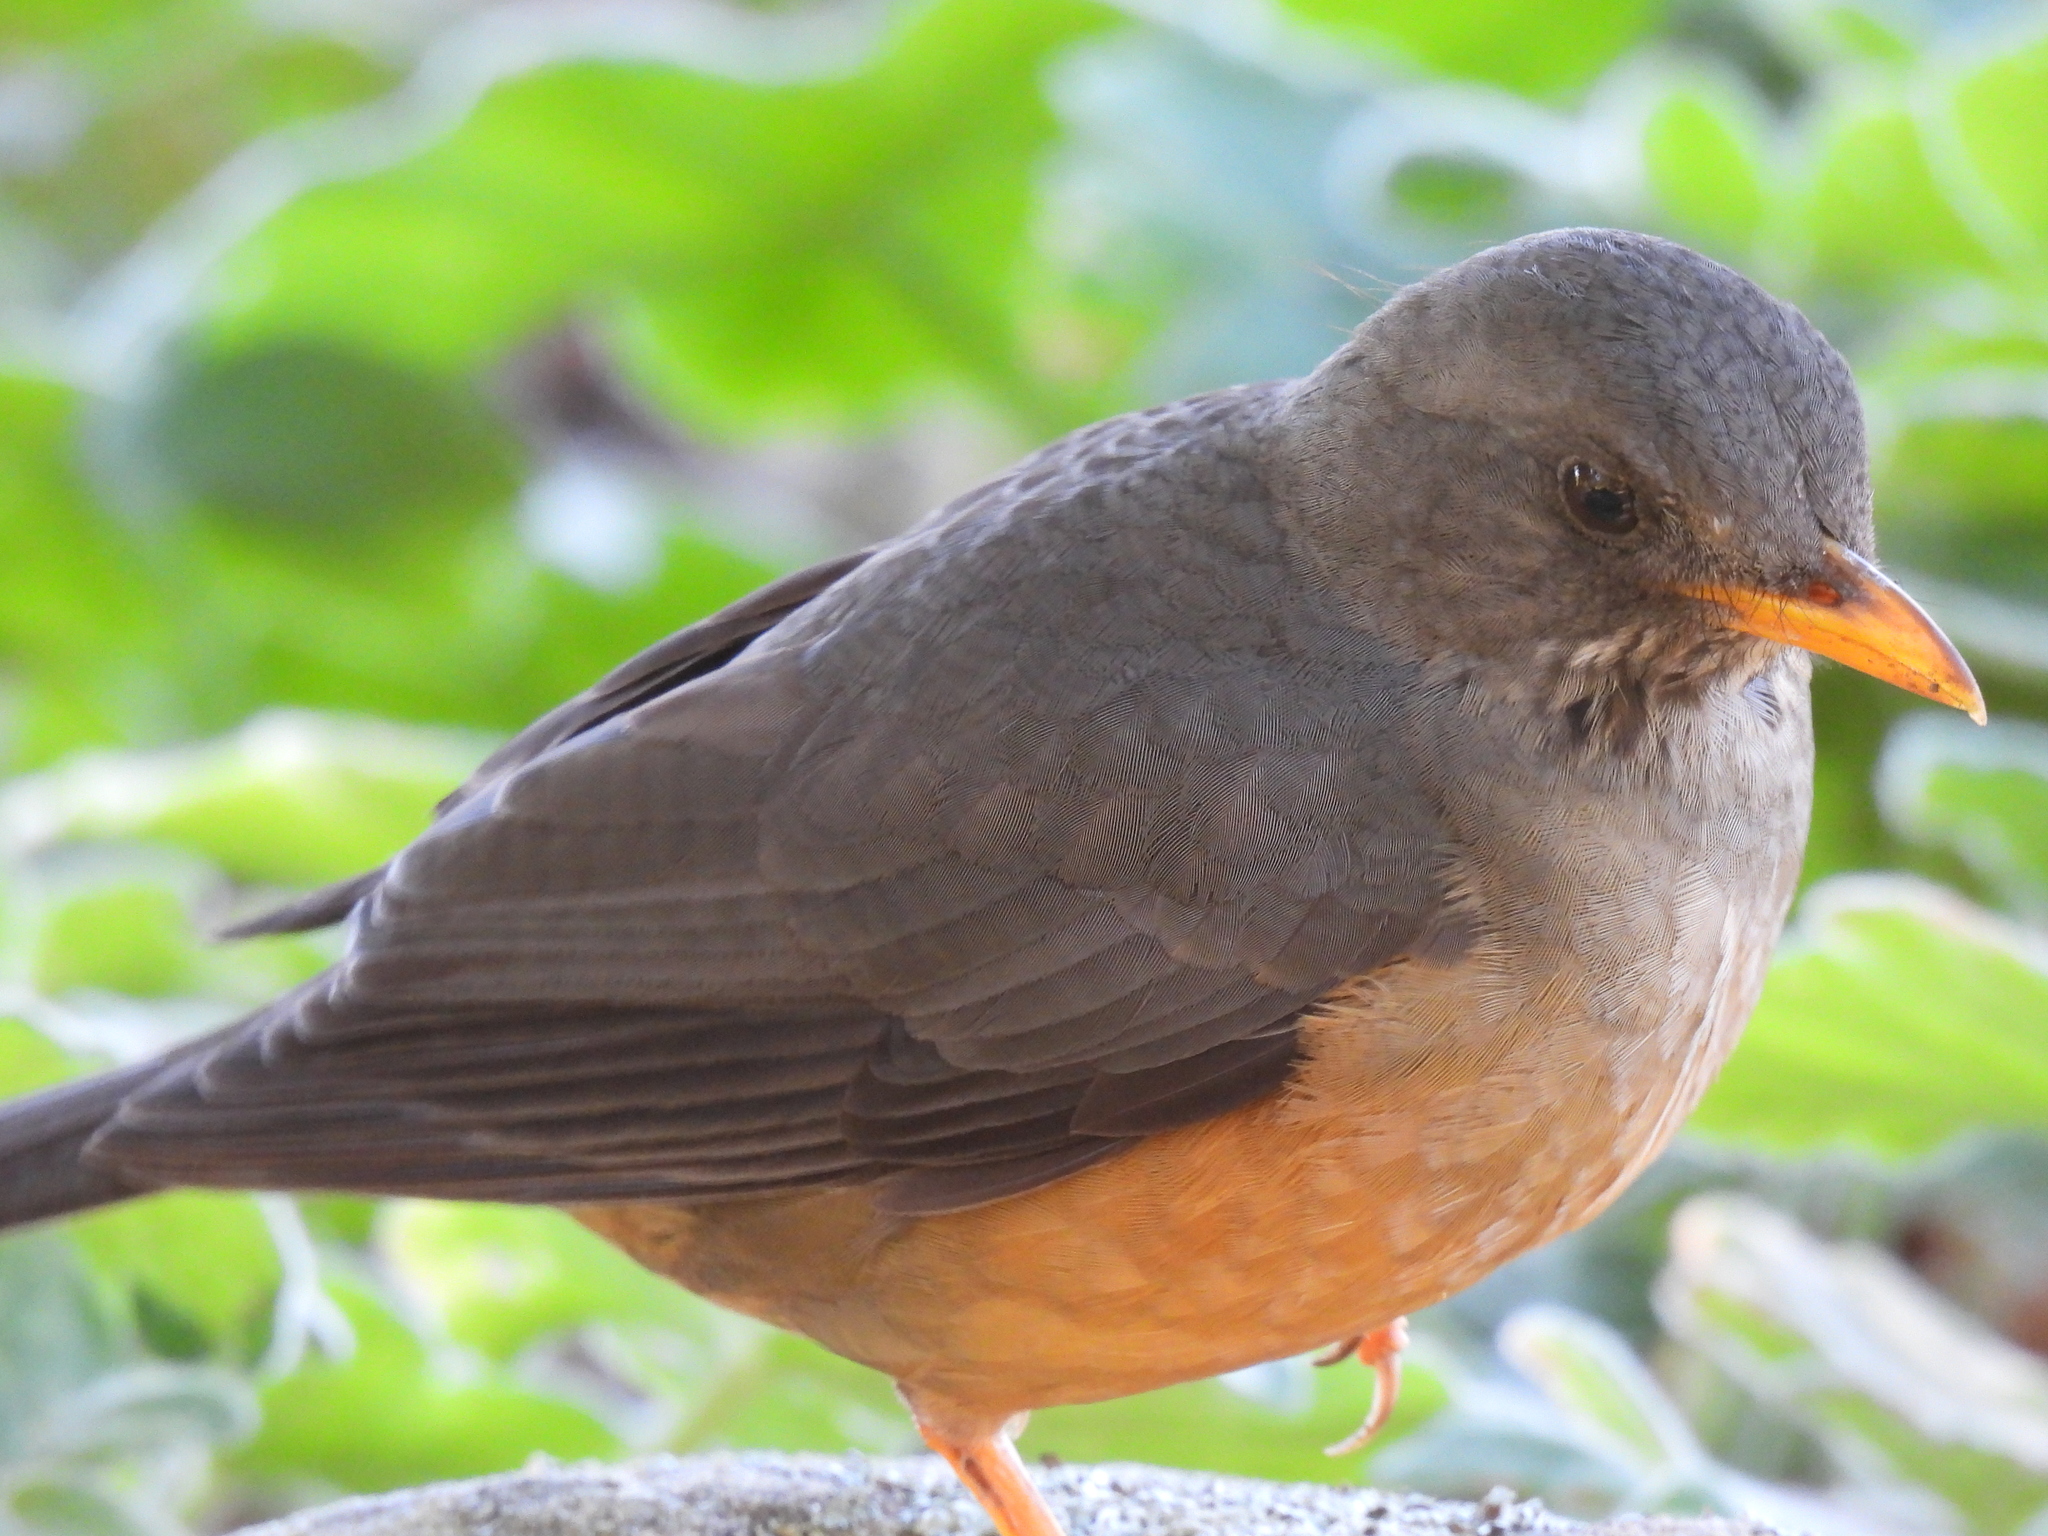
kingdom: Animalia
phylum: Chordata
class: Aves
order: Passeriformes
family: Turdidae
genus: Turdus
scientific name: Turdus olivaceus
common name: Olive thrush
